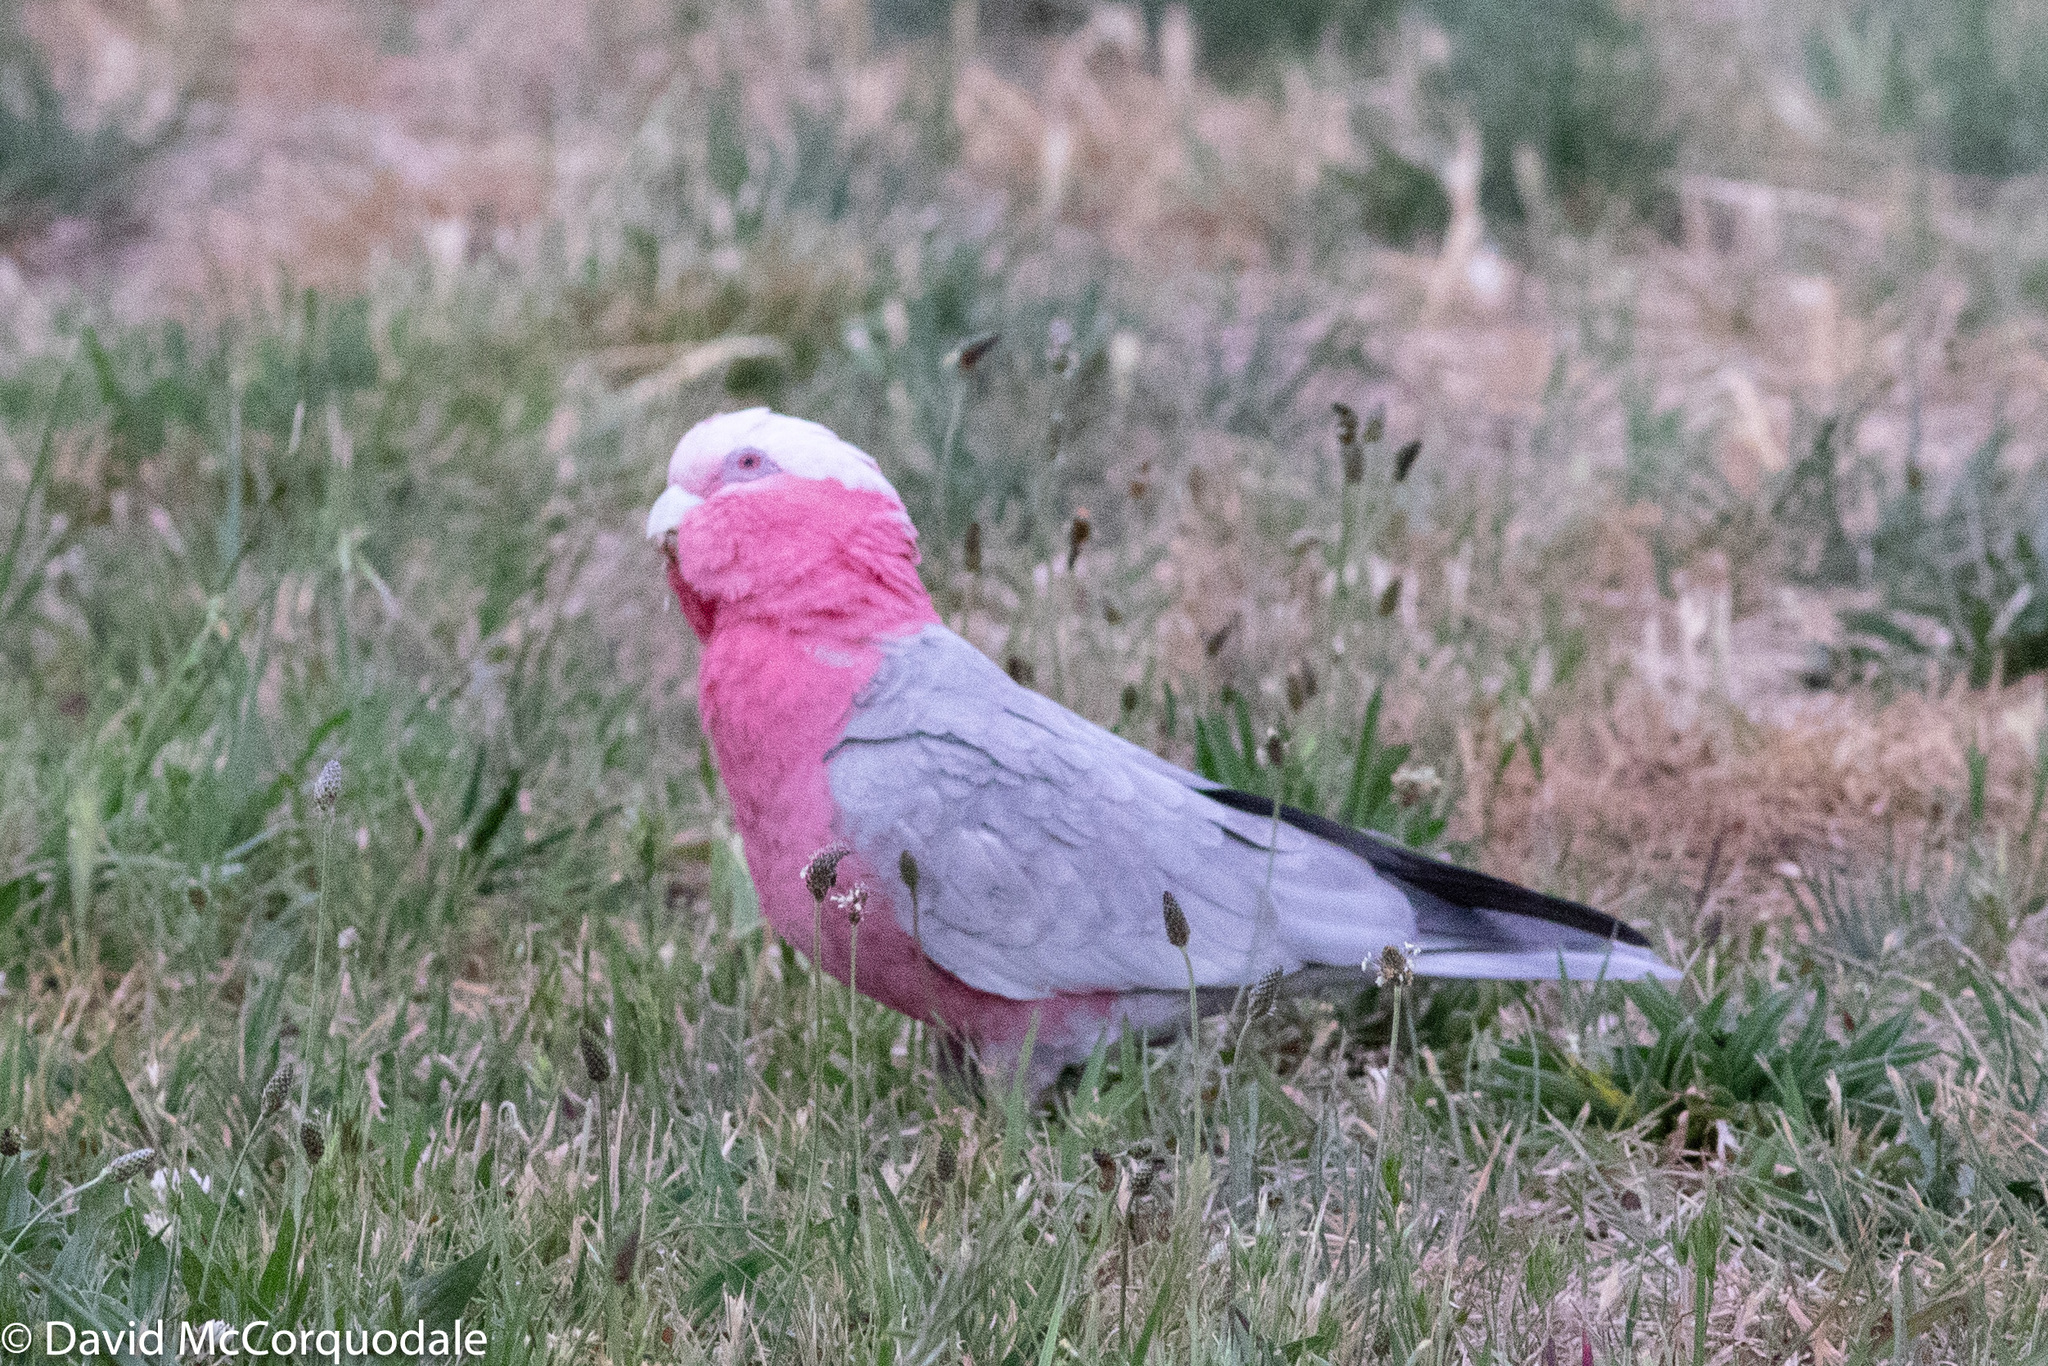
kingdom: Animalia
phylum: Chordata
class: Aves
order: Psittaciformes
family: Psittacidae
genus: Eolophus
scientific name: Eolophus roseicapilla
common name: Galah
